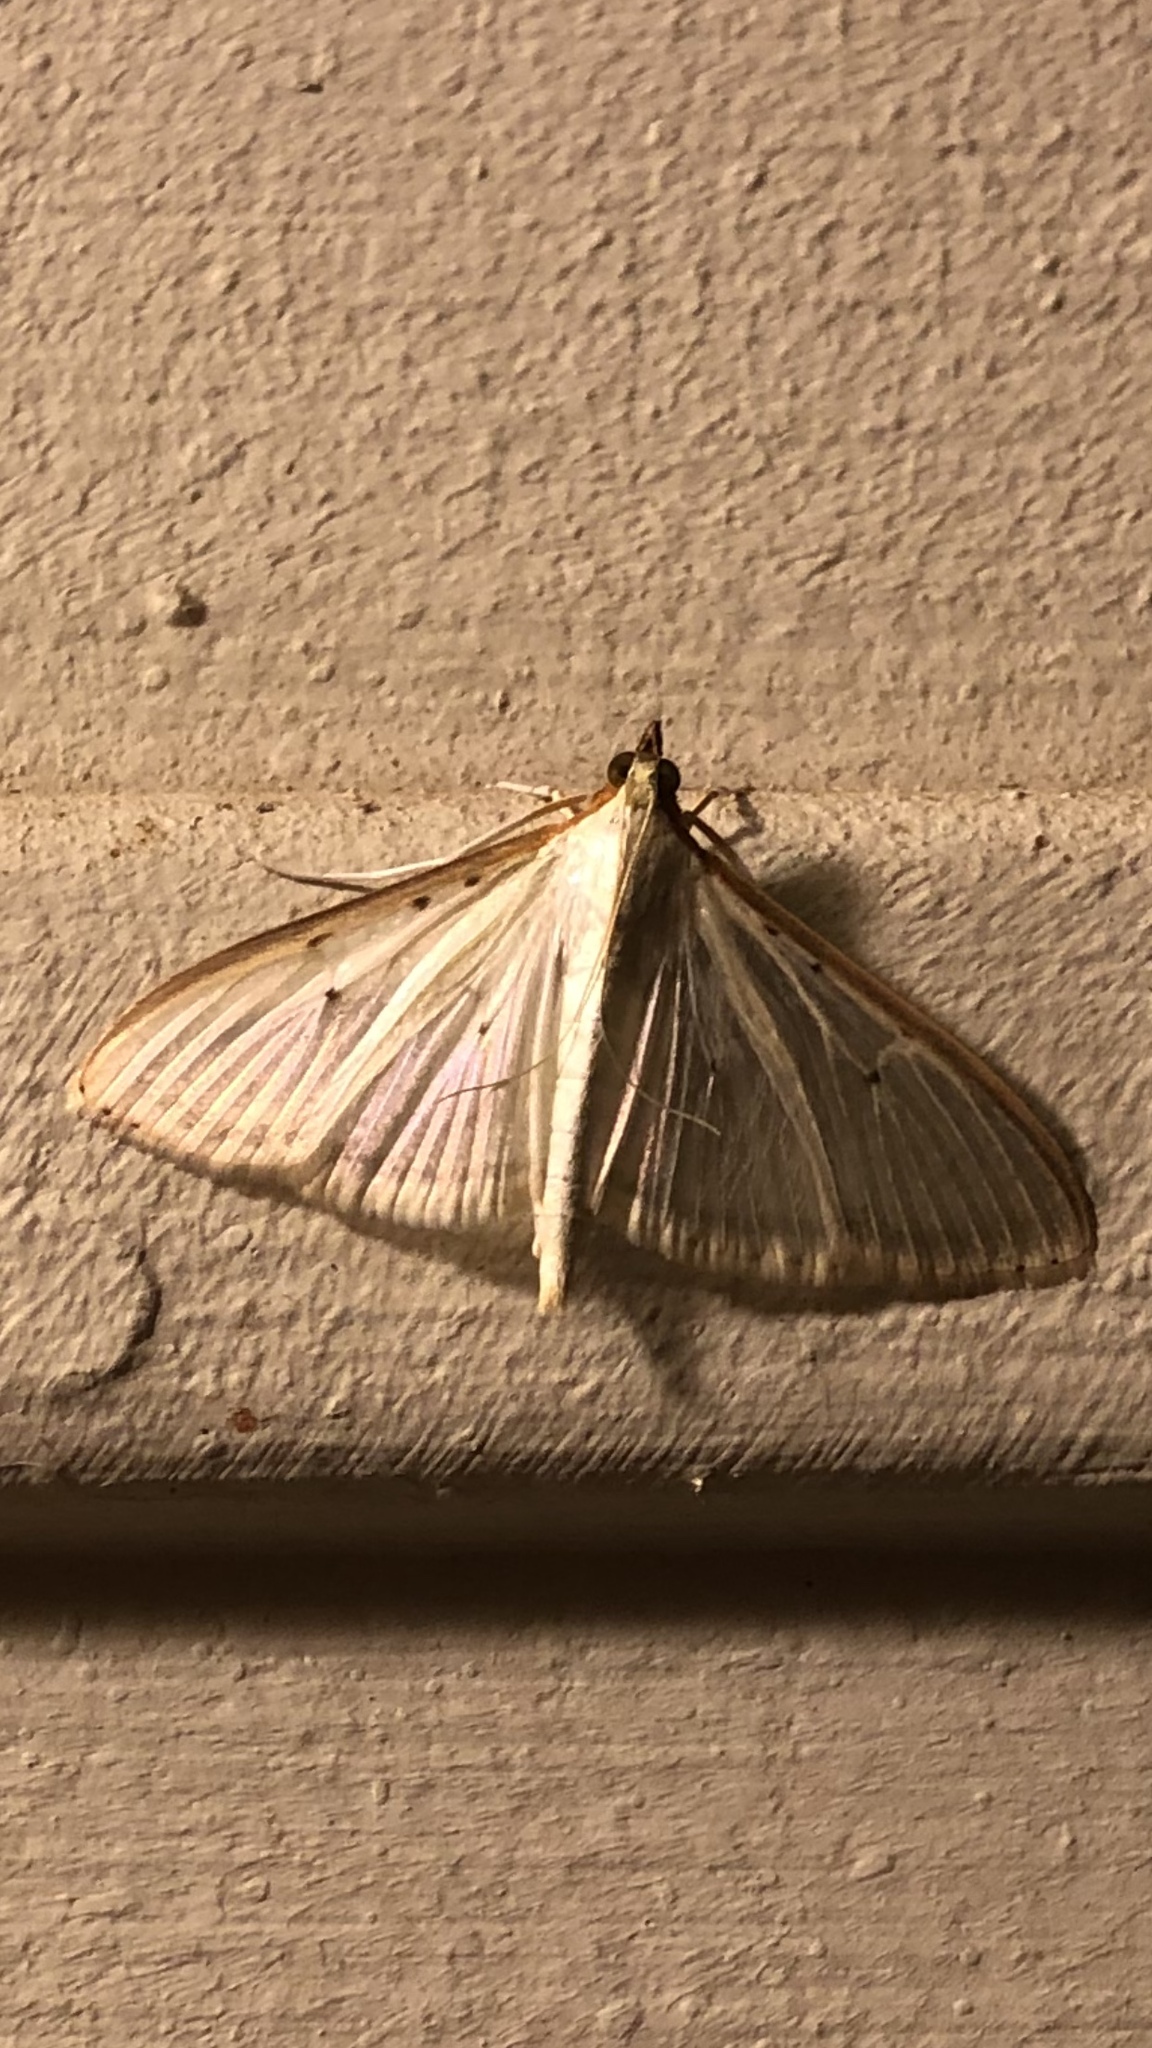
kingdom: Animalia
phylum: Arthropoda
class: Insecta
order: Lepidoptera
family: Crambidae
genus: Palpita
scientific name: Palpita quadristigmalis
